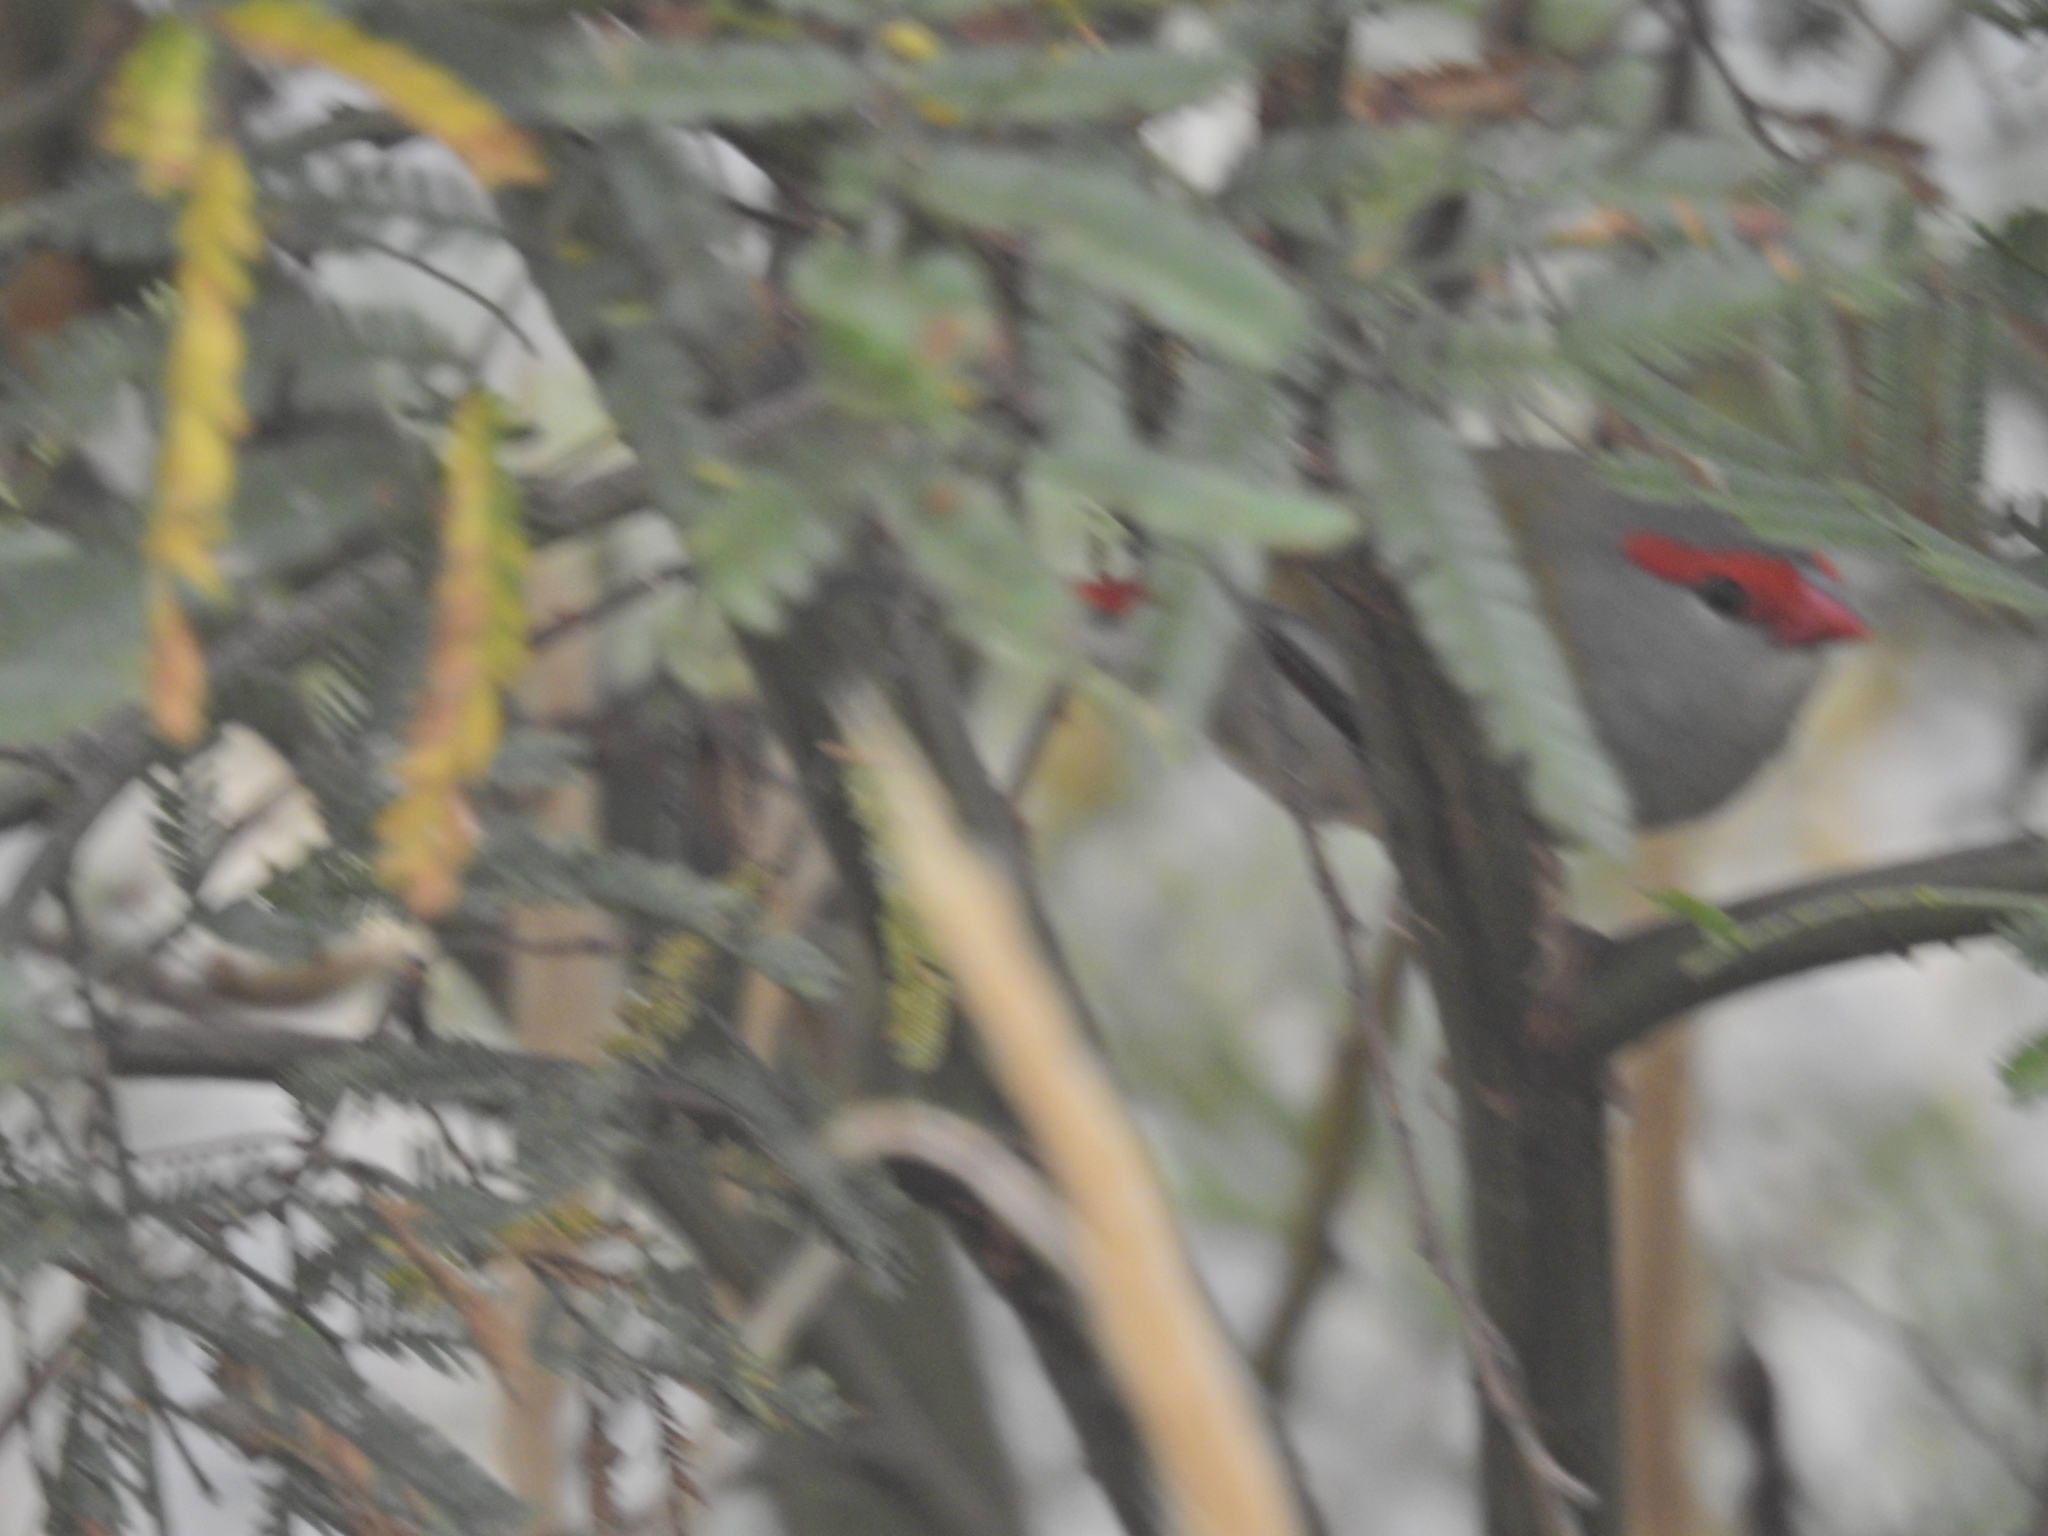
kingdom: Animalia
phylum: Chordata
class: Aves
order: Passeriformes
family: Estrildidae
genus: Neochmia
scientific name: Neochmia temporalis
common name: Red-browed finch
